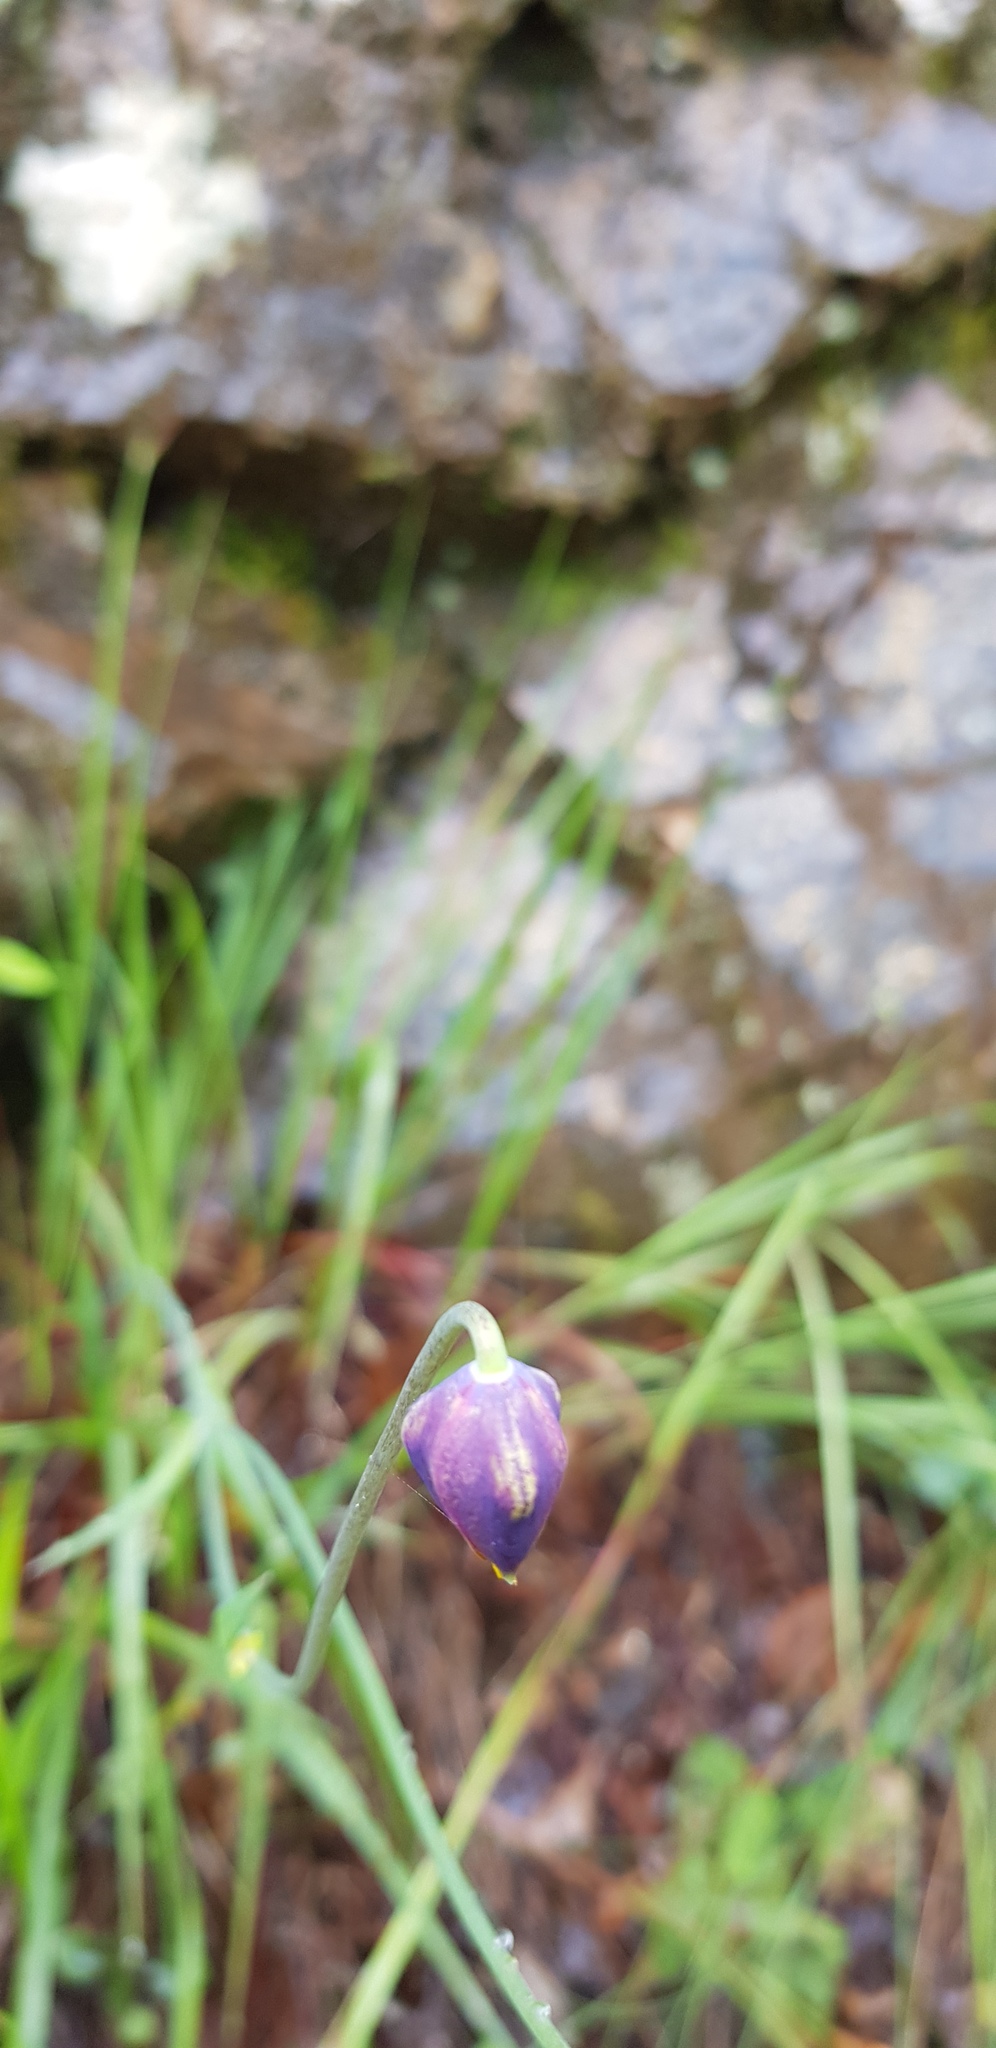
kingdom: Plantae
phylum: Tracheophyta
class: Liliopsida
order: Liliales
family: Liliaceae
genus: Calochortus
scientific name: Calochortus barbatus
